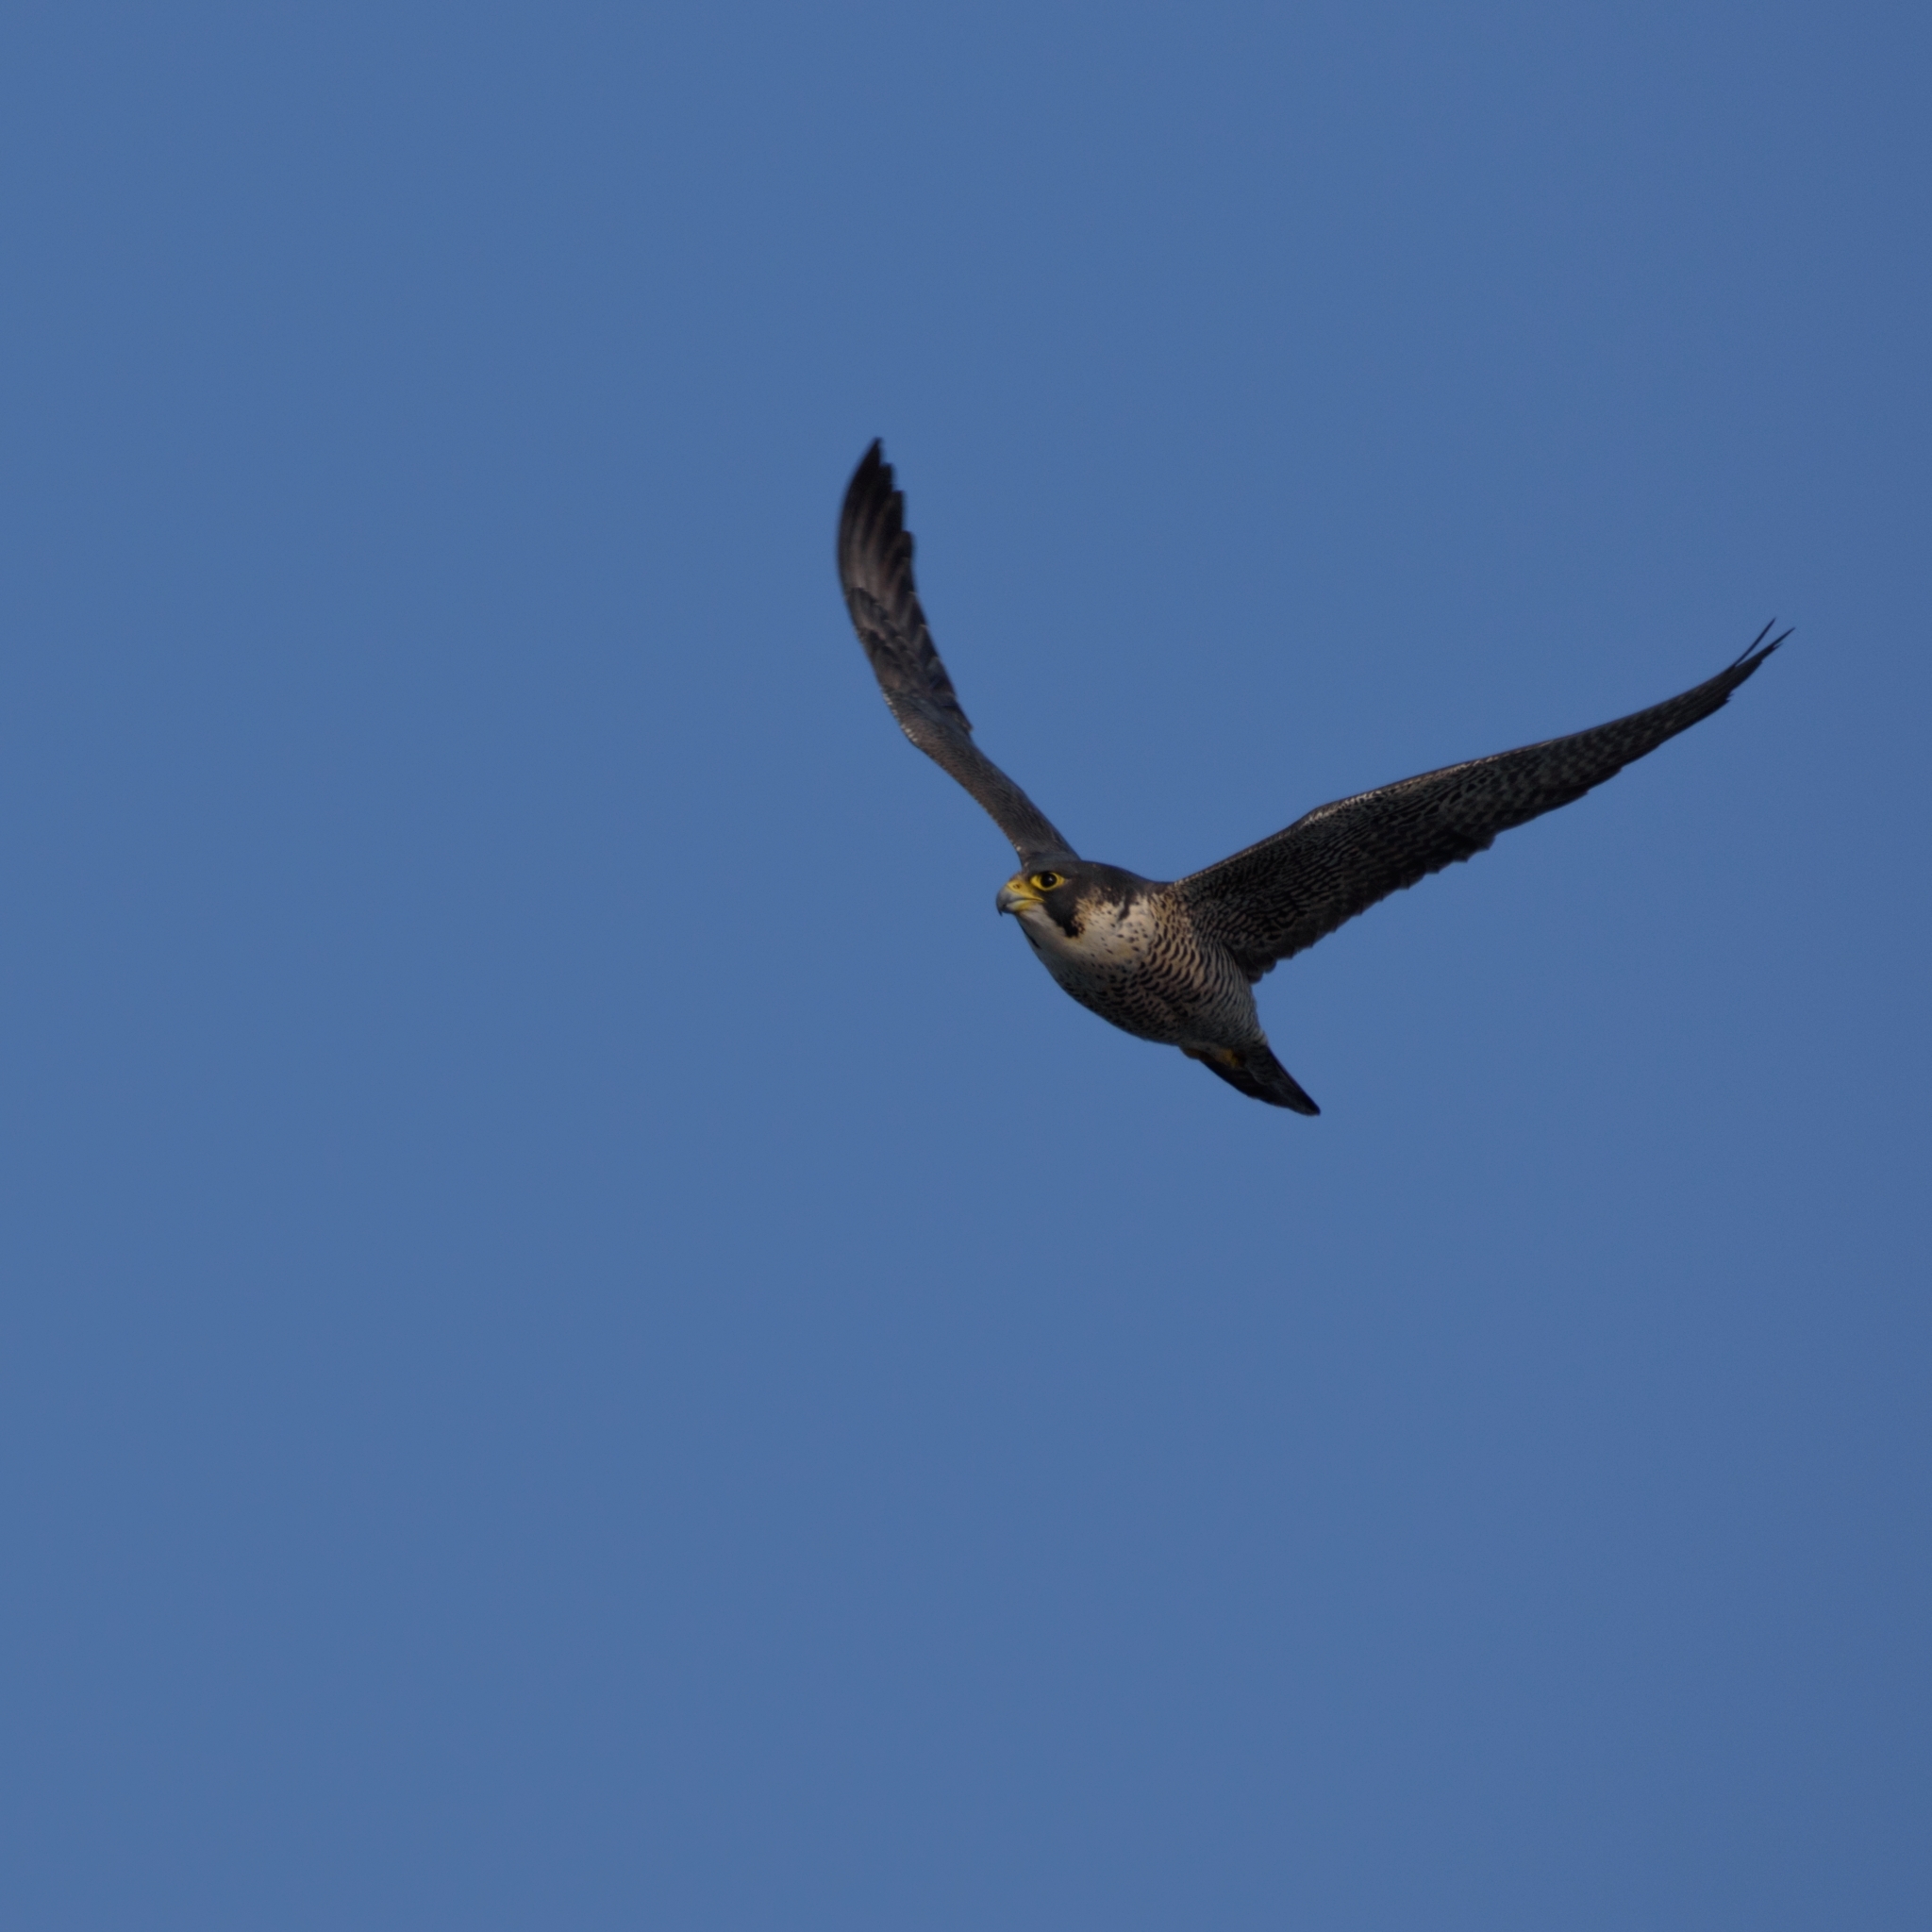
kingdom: Animalia
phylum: Chordata
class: Aves
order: Falconiformes
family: Falconidae
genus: Falco
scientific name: Falco peregrinus
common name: Peregrine falcon
